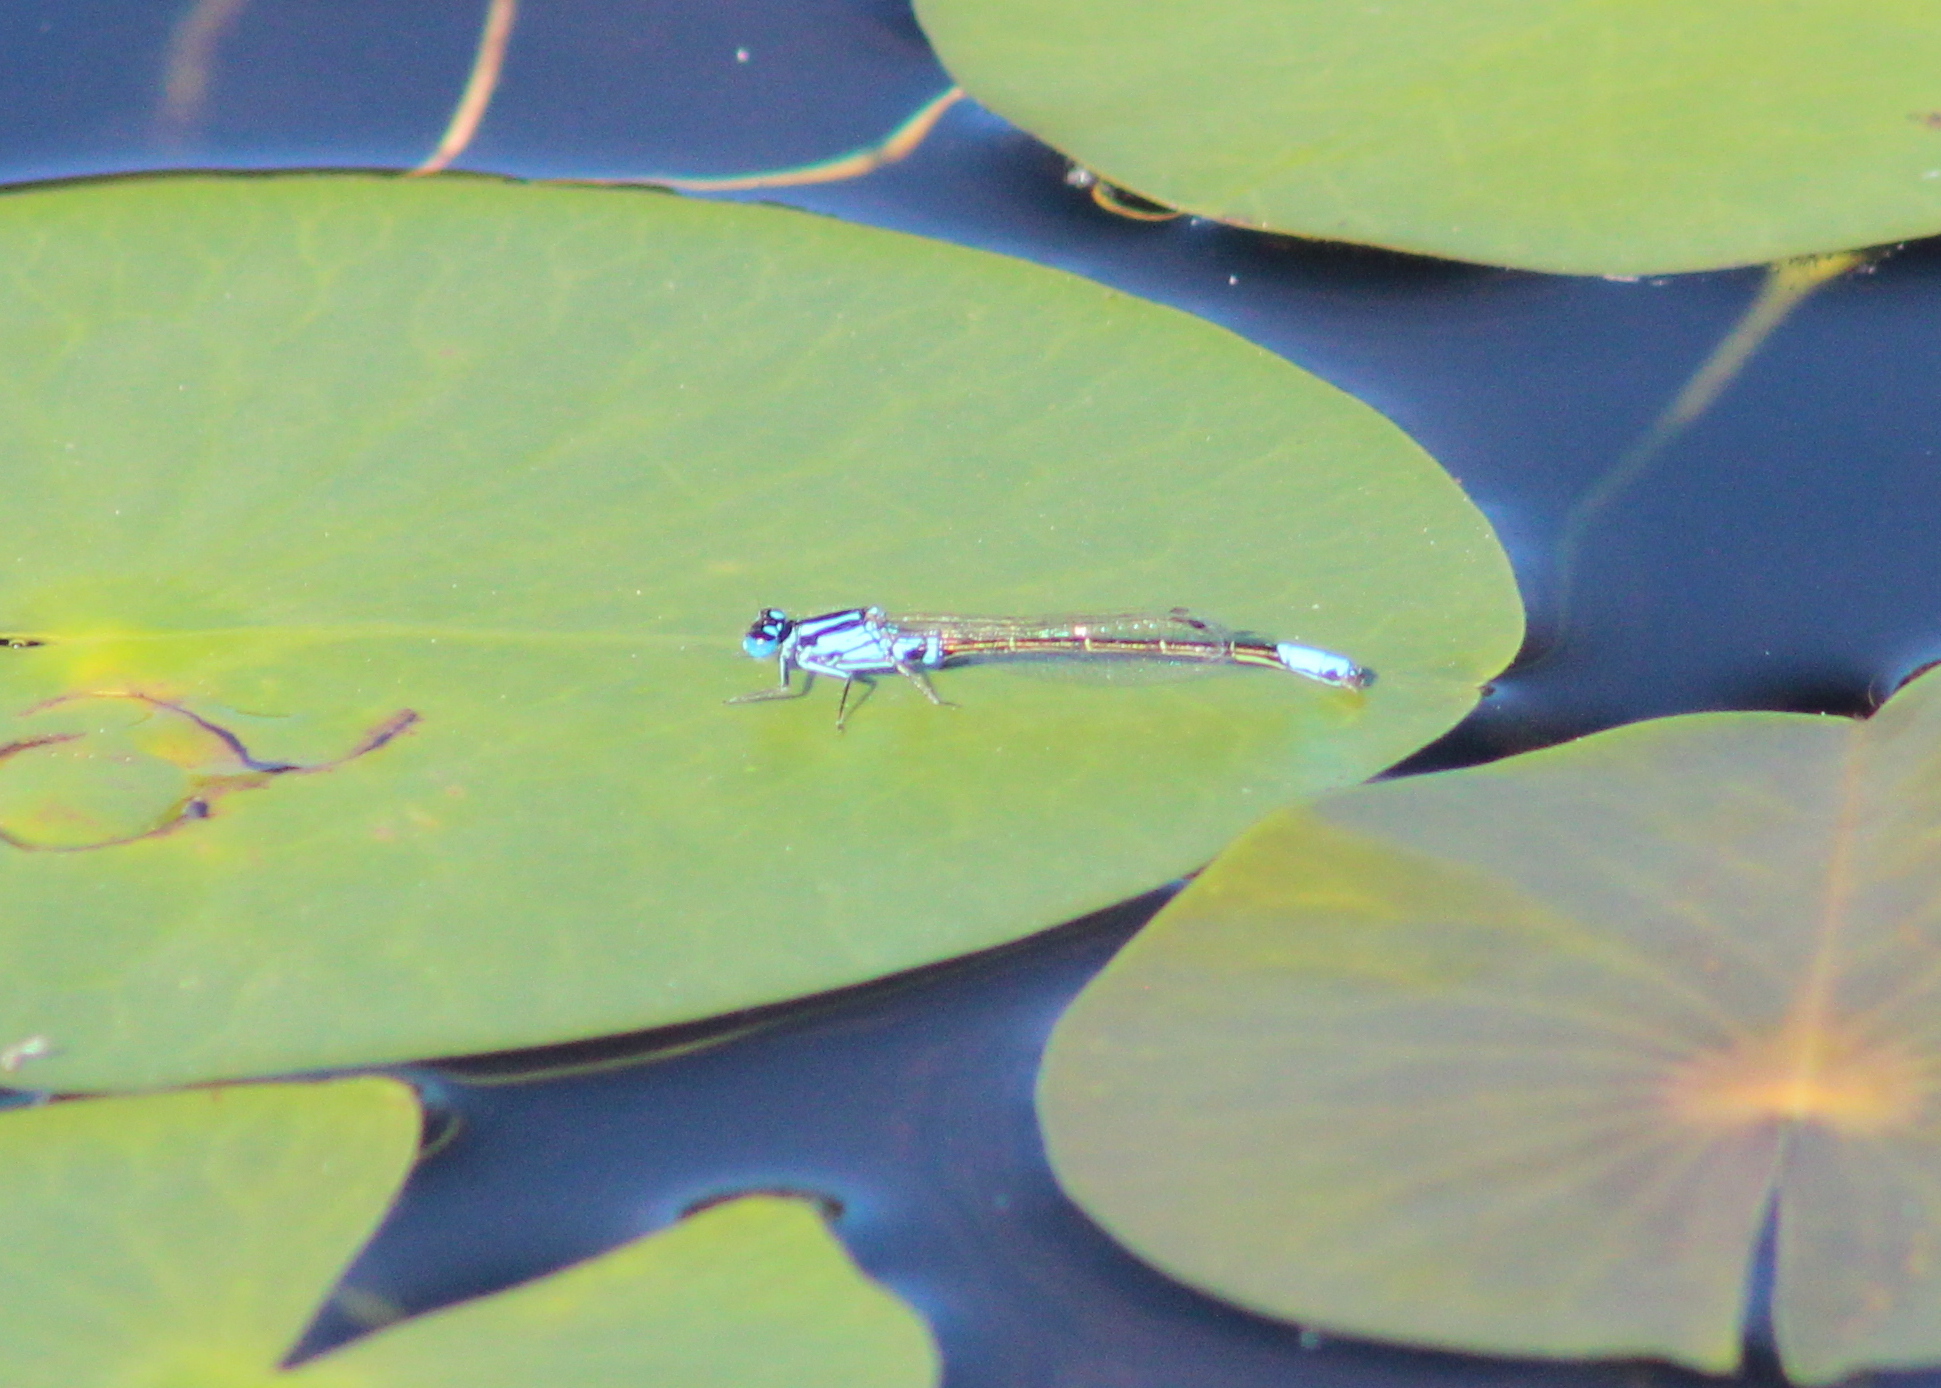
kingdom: Animalia
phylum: Arthropoda
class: Insecta
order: Odonata
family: Coenagrionidae
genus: Ischnura
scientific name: Ischnura kellicotti
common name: Lilypad forktail
